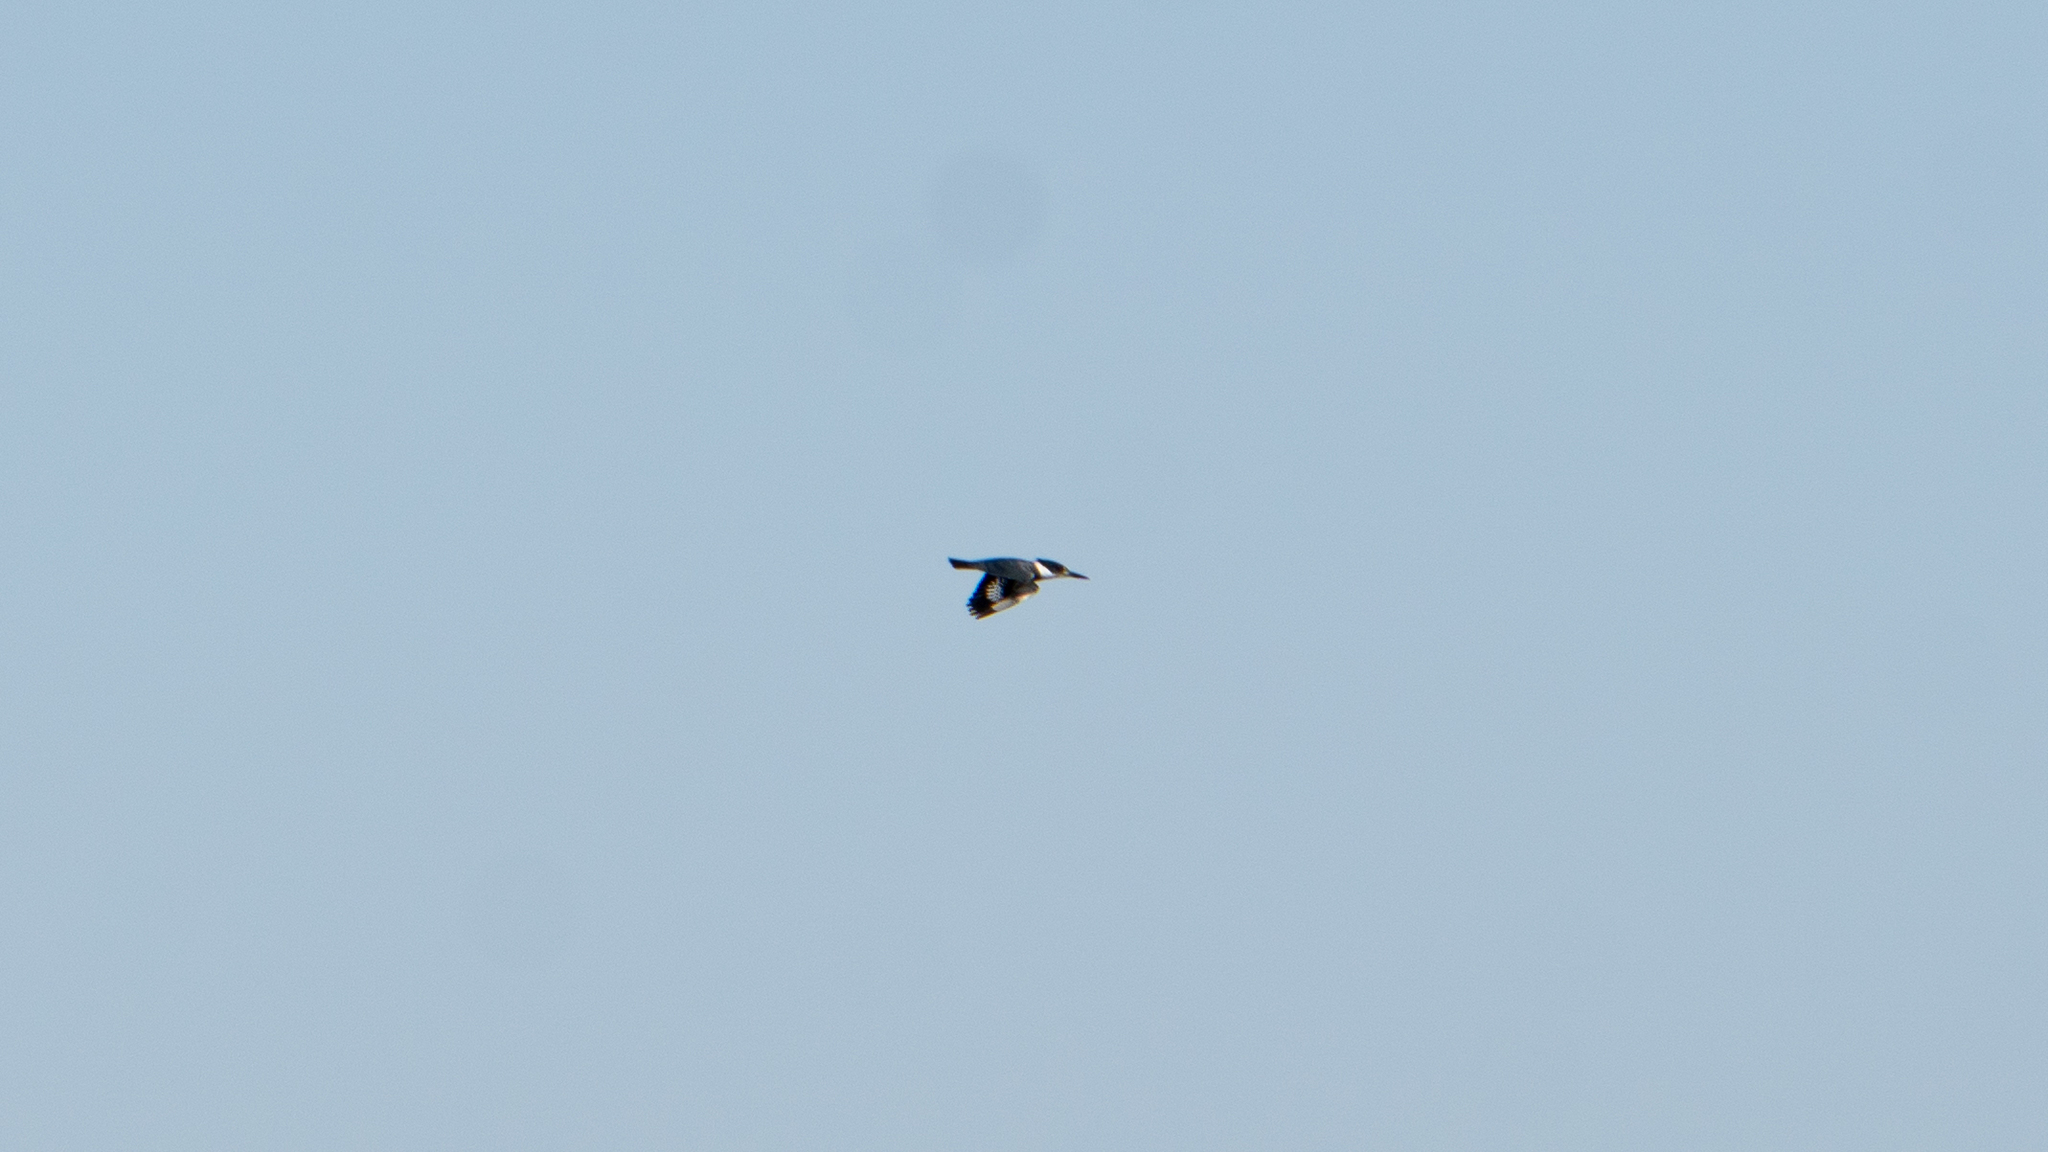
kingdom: Animalia
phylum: Chordata
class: Aves
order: Coraciiformes
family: Alcedinidae
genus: Megaceryle
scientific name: Megaceryle alcyon
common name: Belted kingfisher
